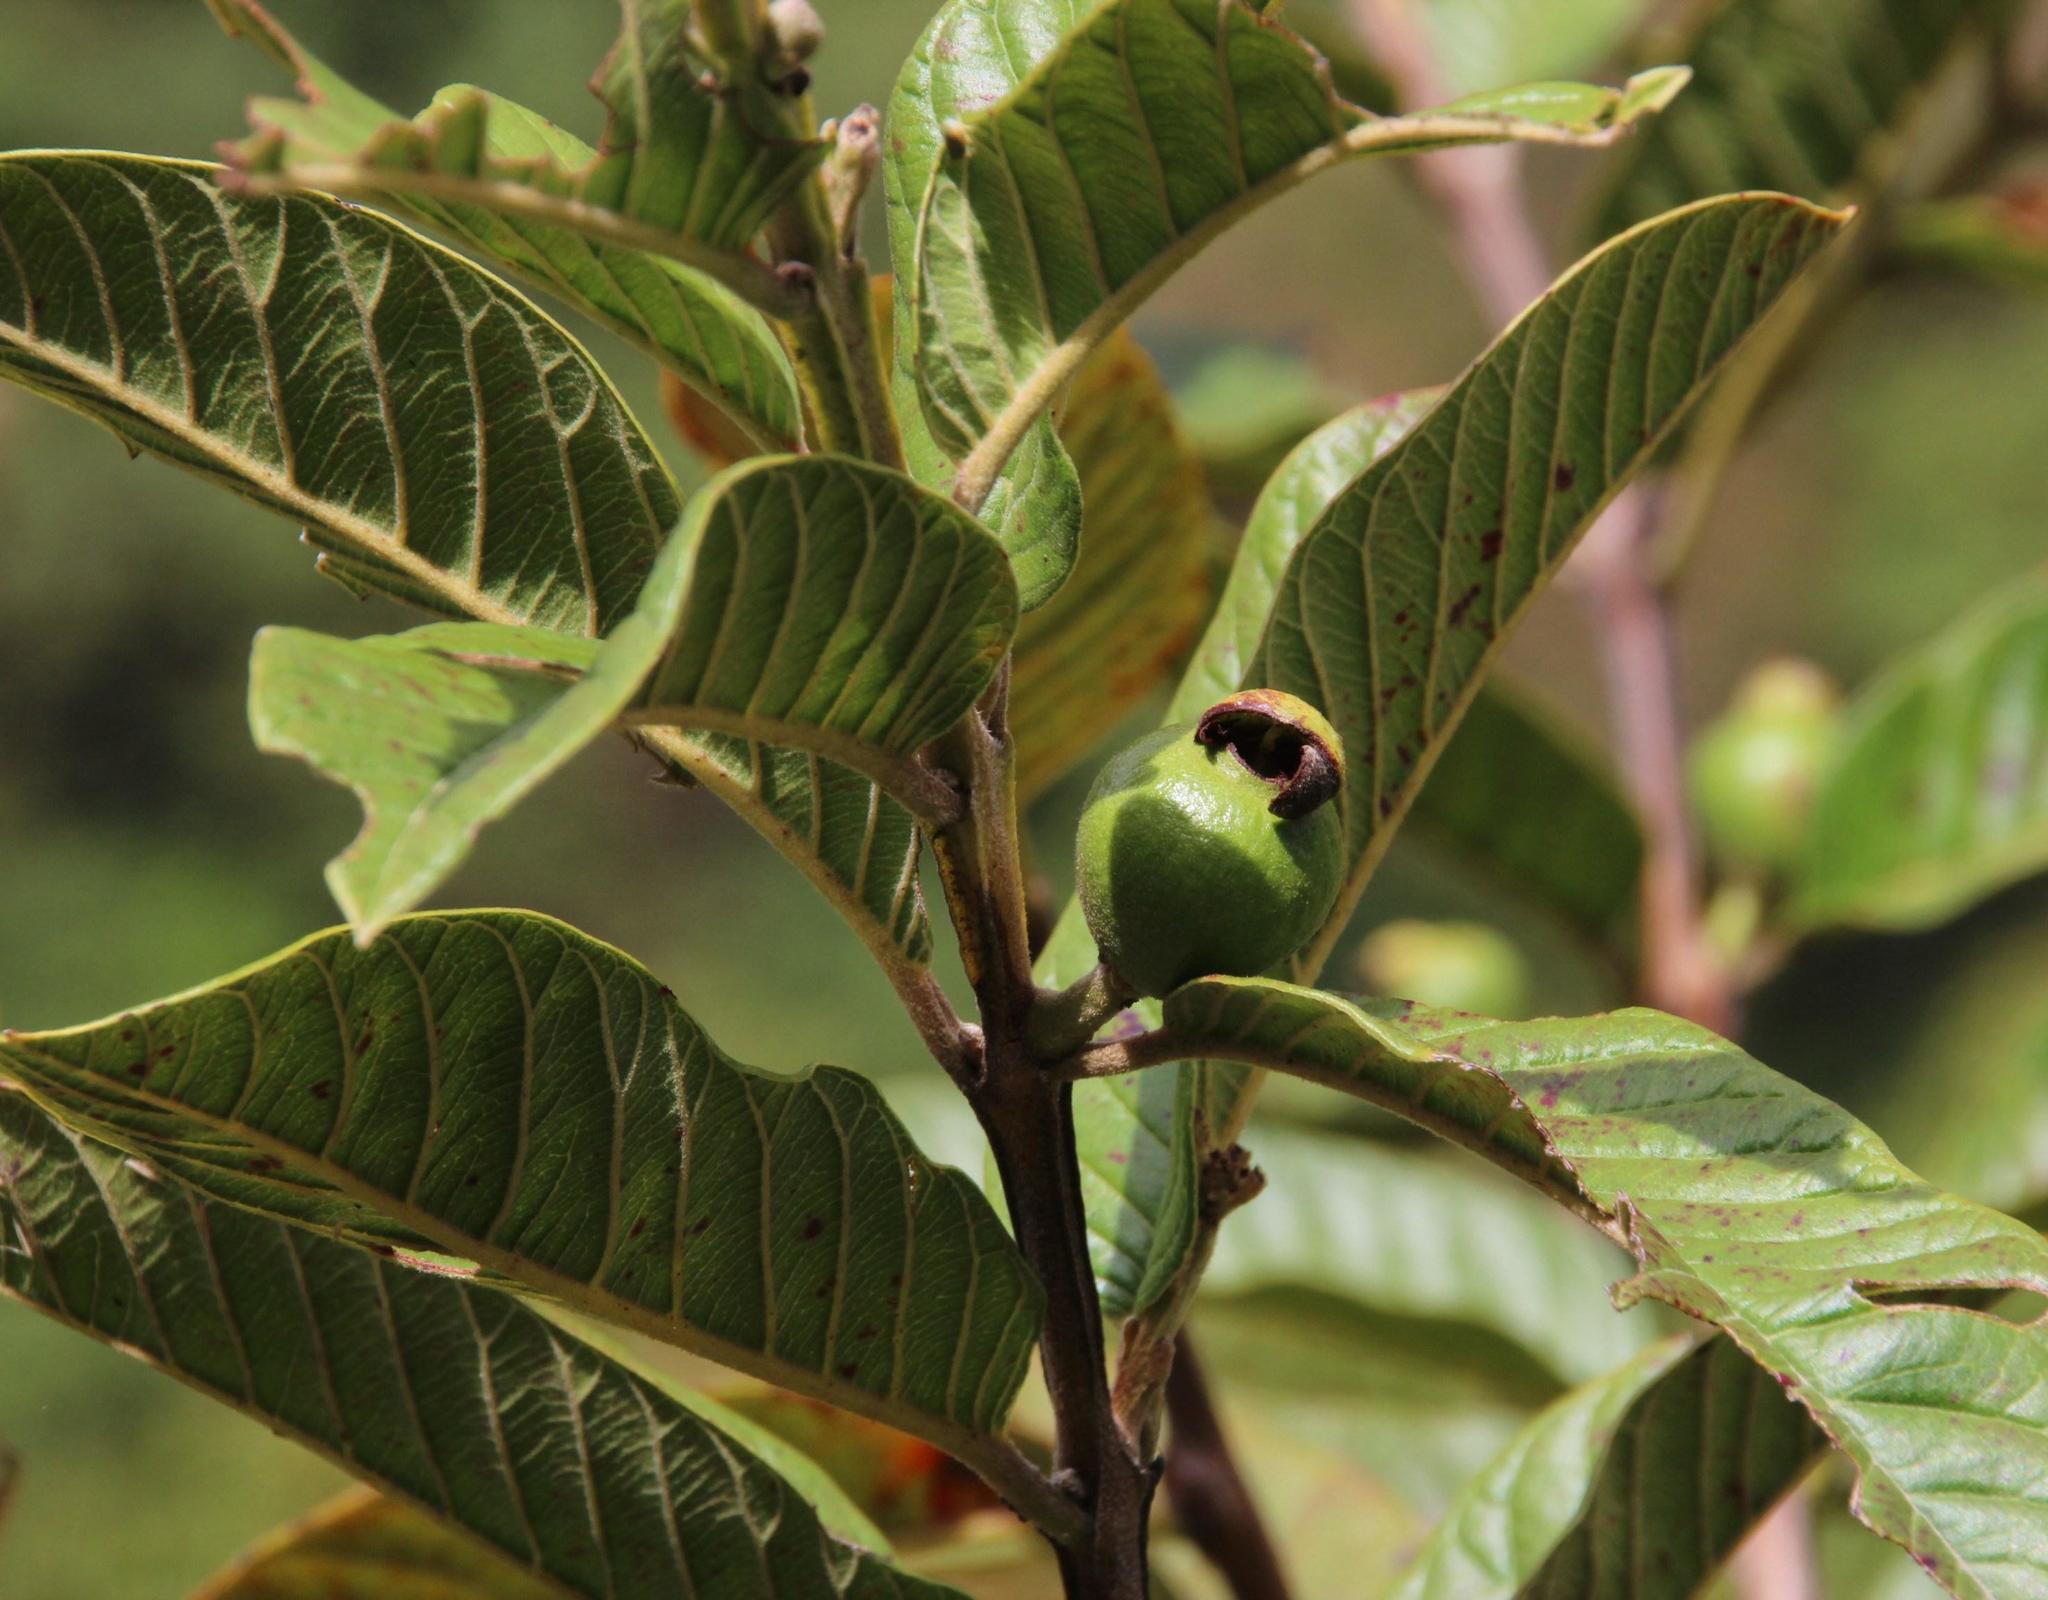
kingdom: Plantae
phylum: Tracheophyta
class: Magnoliopsida
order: Myrtales
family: Myrtaceae
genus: Psidium
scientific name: Psidium guajava
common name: Guava
